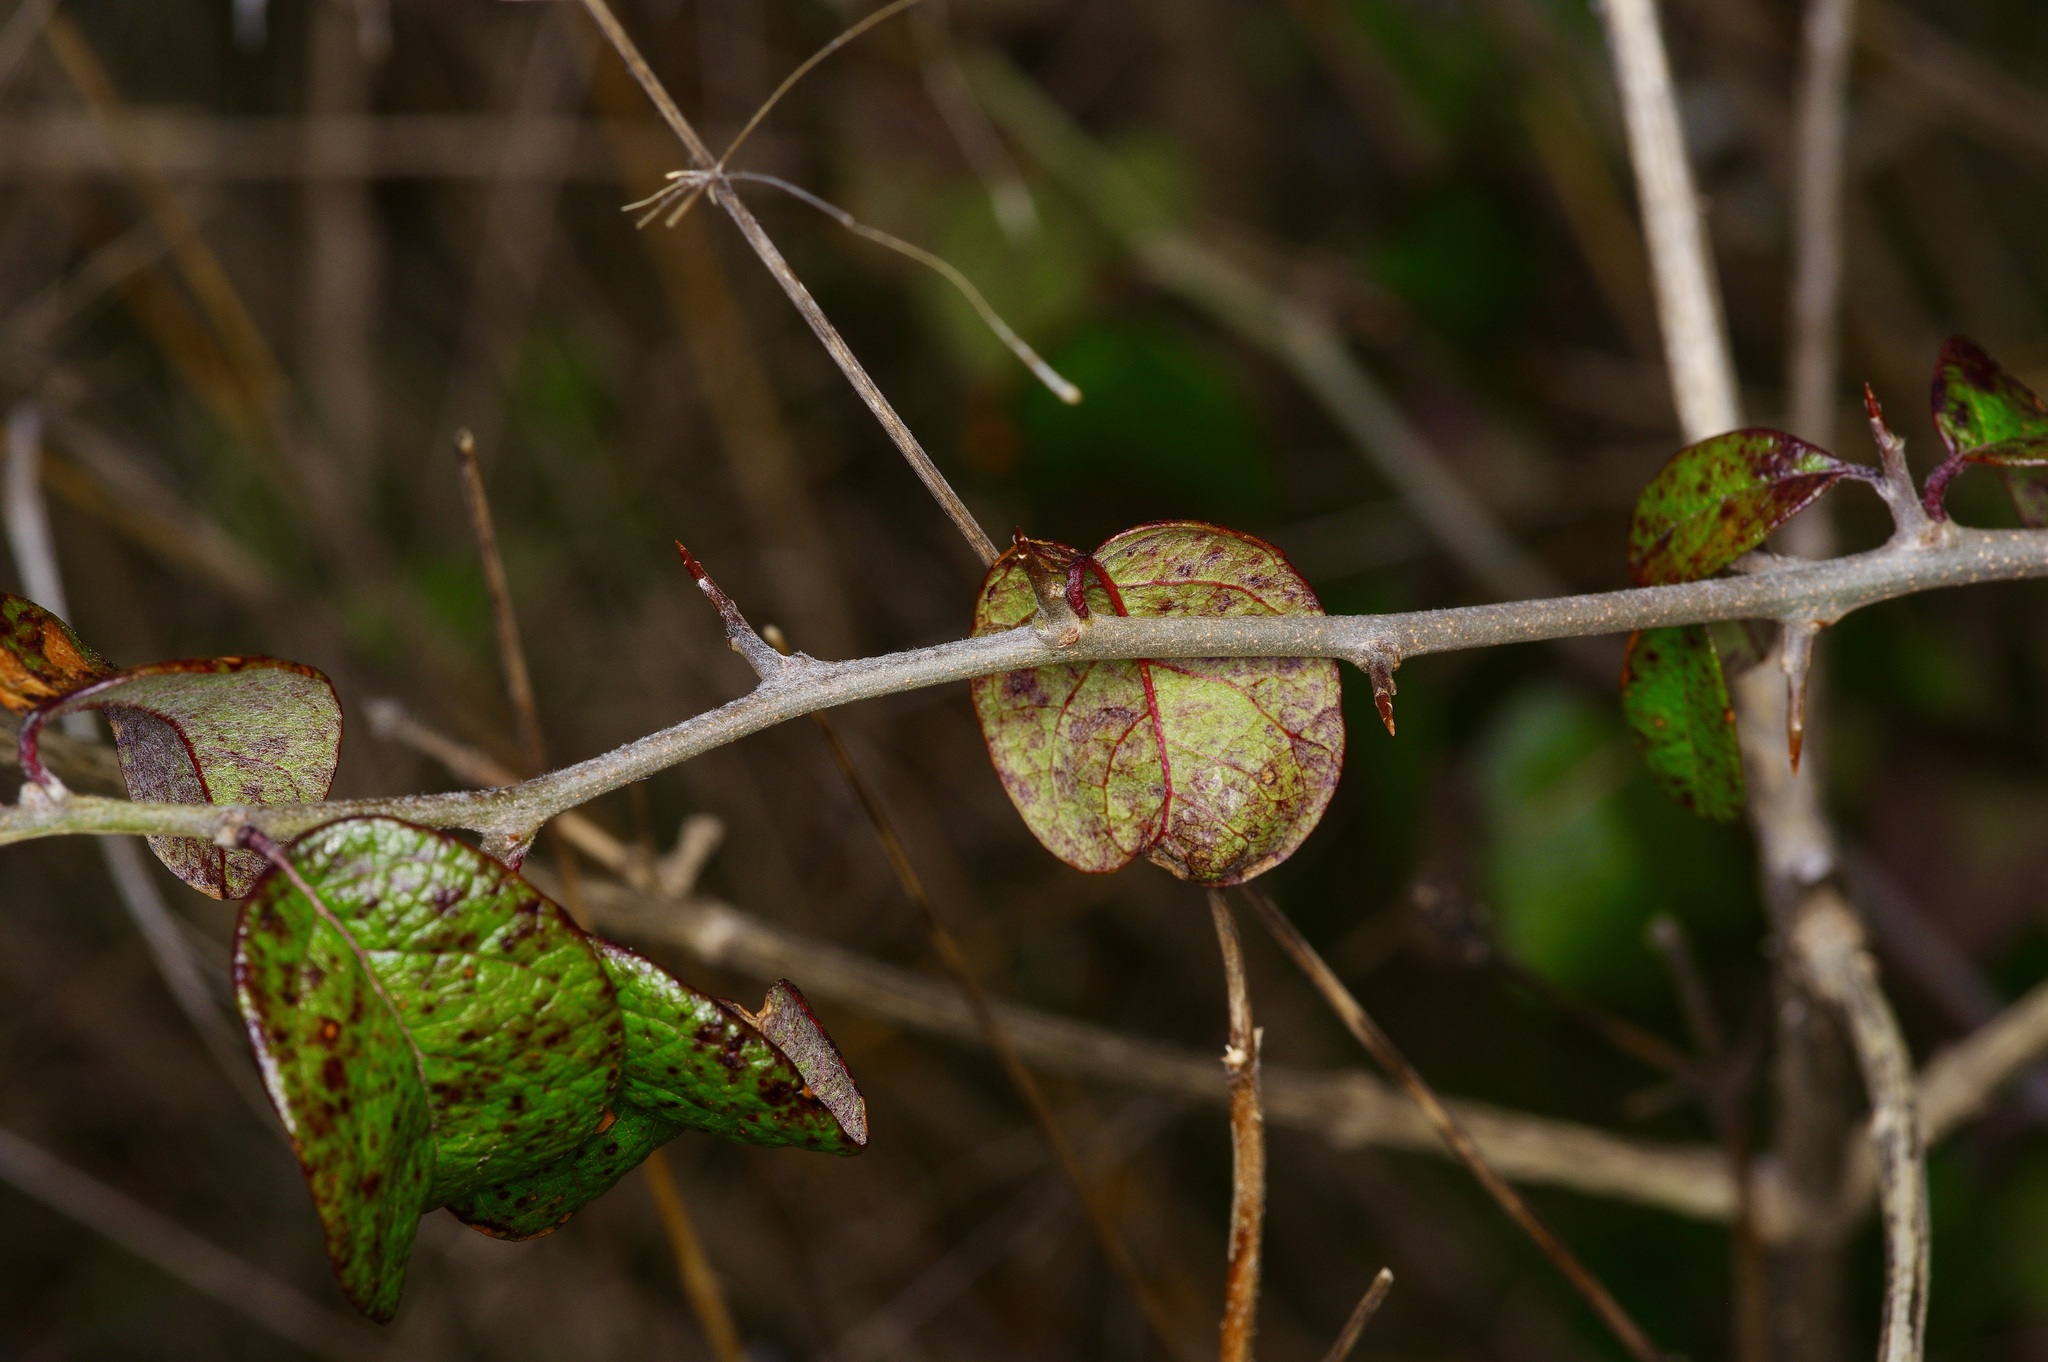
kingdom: Plantae
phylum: Tracheophyta
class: Magnoliopsida
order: Ericales
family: Sapotaceae
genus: Sideroxylon
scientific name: Sideroxylon lanuginosum
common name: Chittamwood
